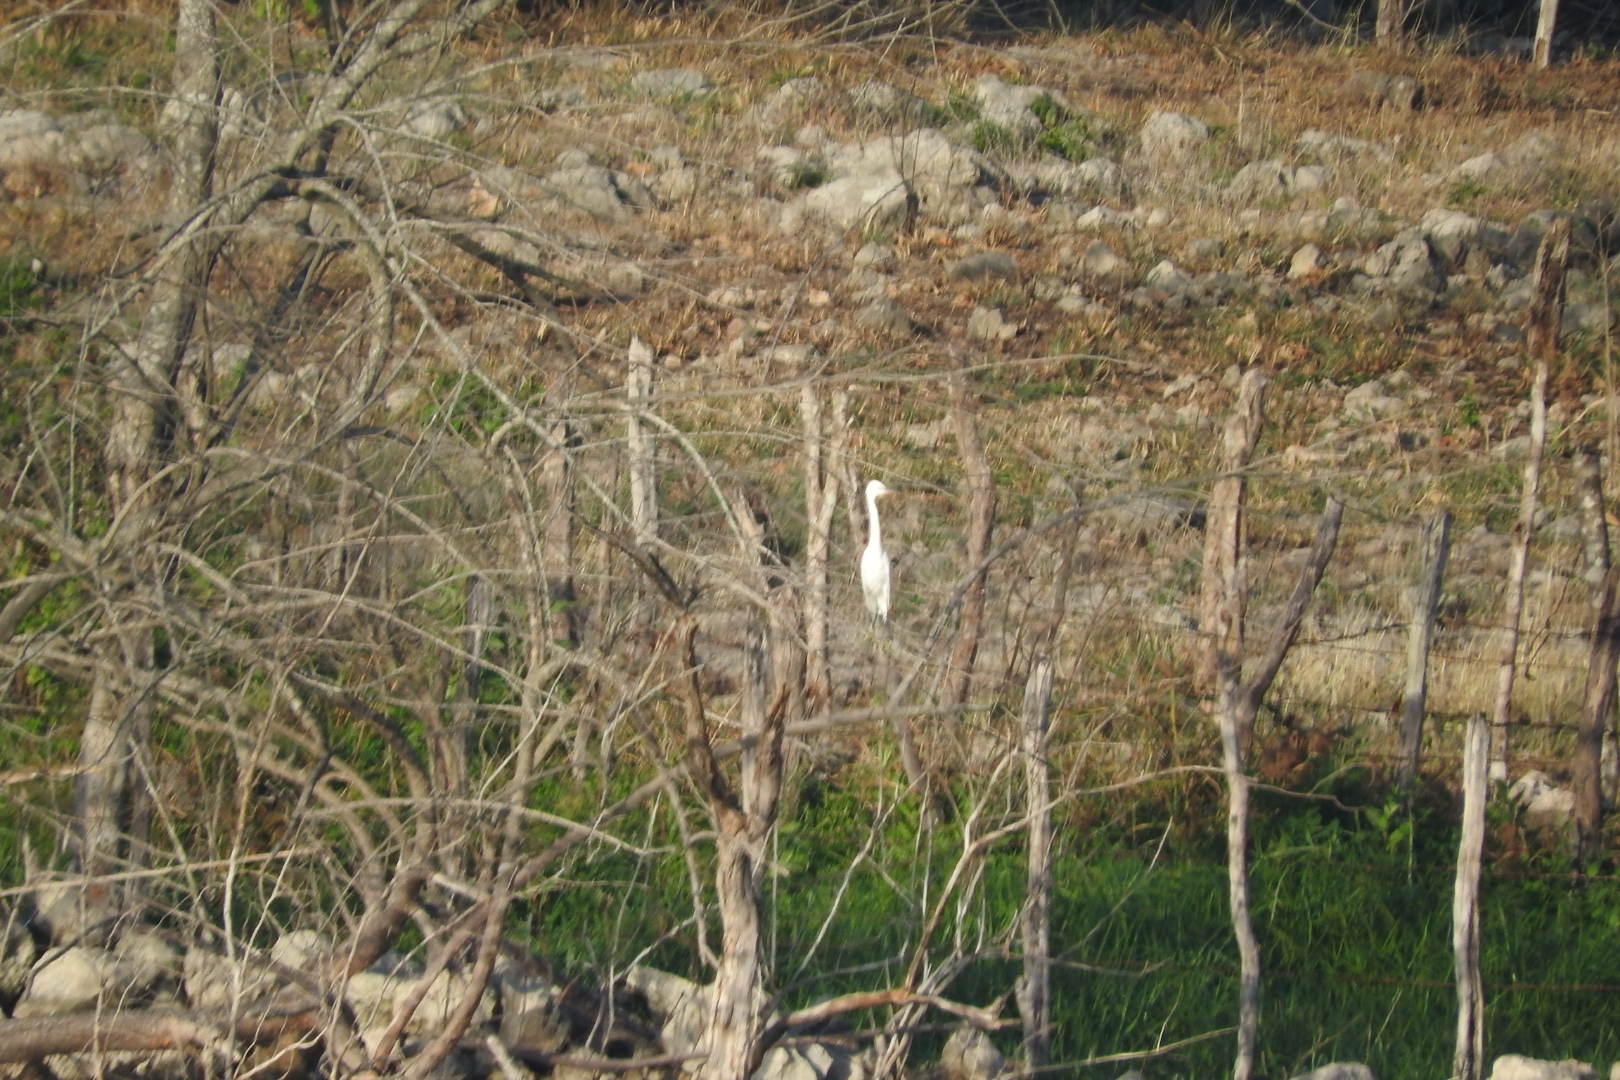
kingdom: Animalia
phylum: Chordata
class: Aves
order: Pelecaniformes
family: Ardeidae
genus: Bubulcus
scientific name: Bubulcus ibis
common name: Cattle egret
